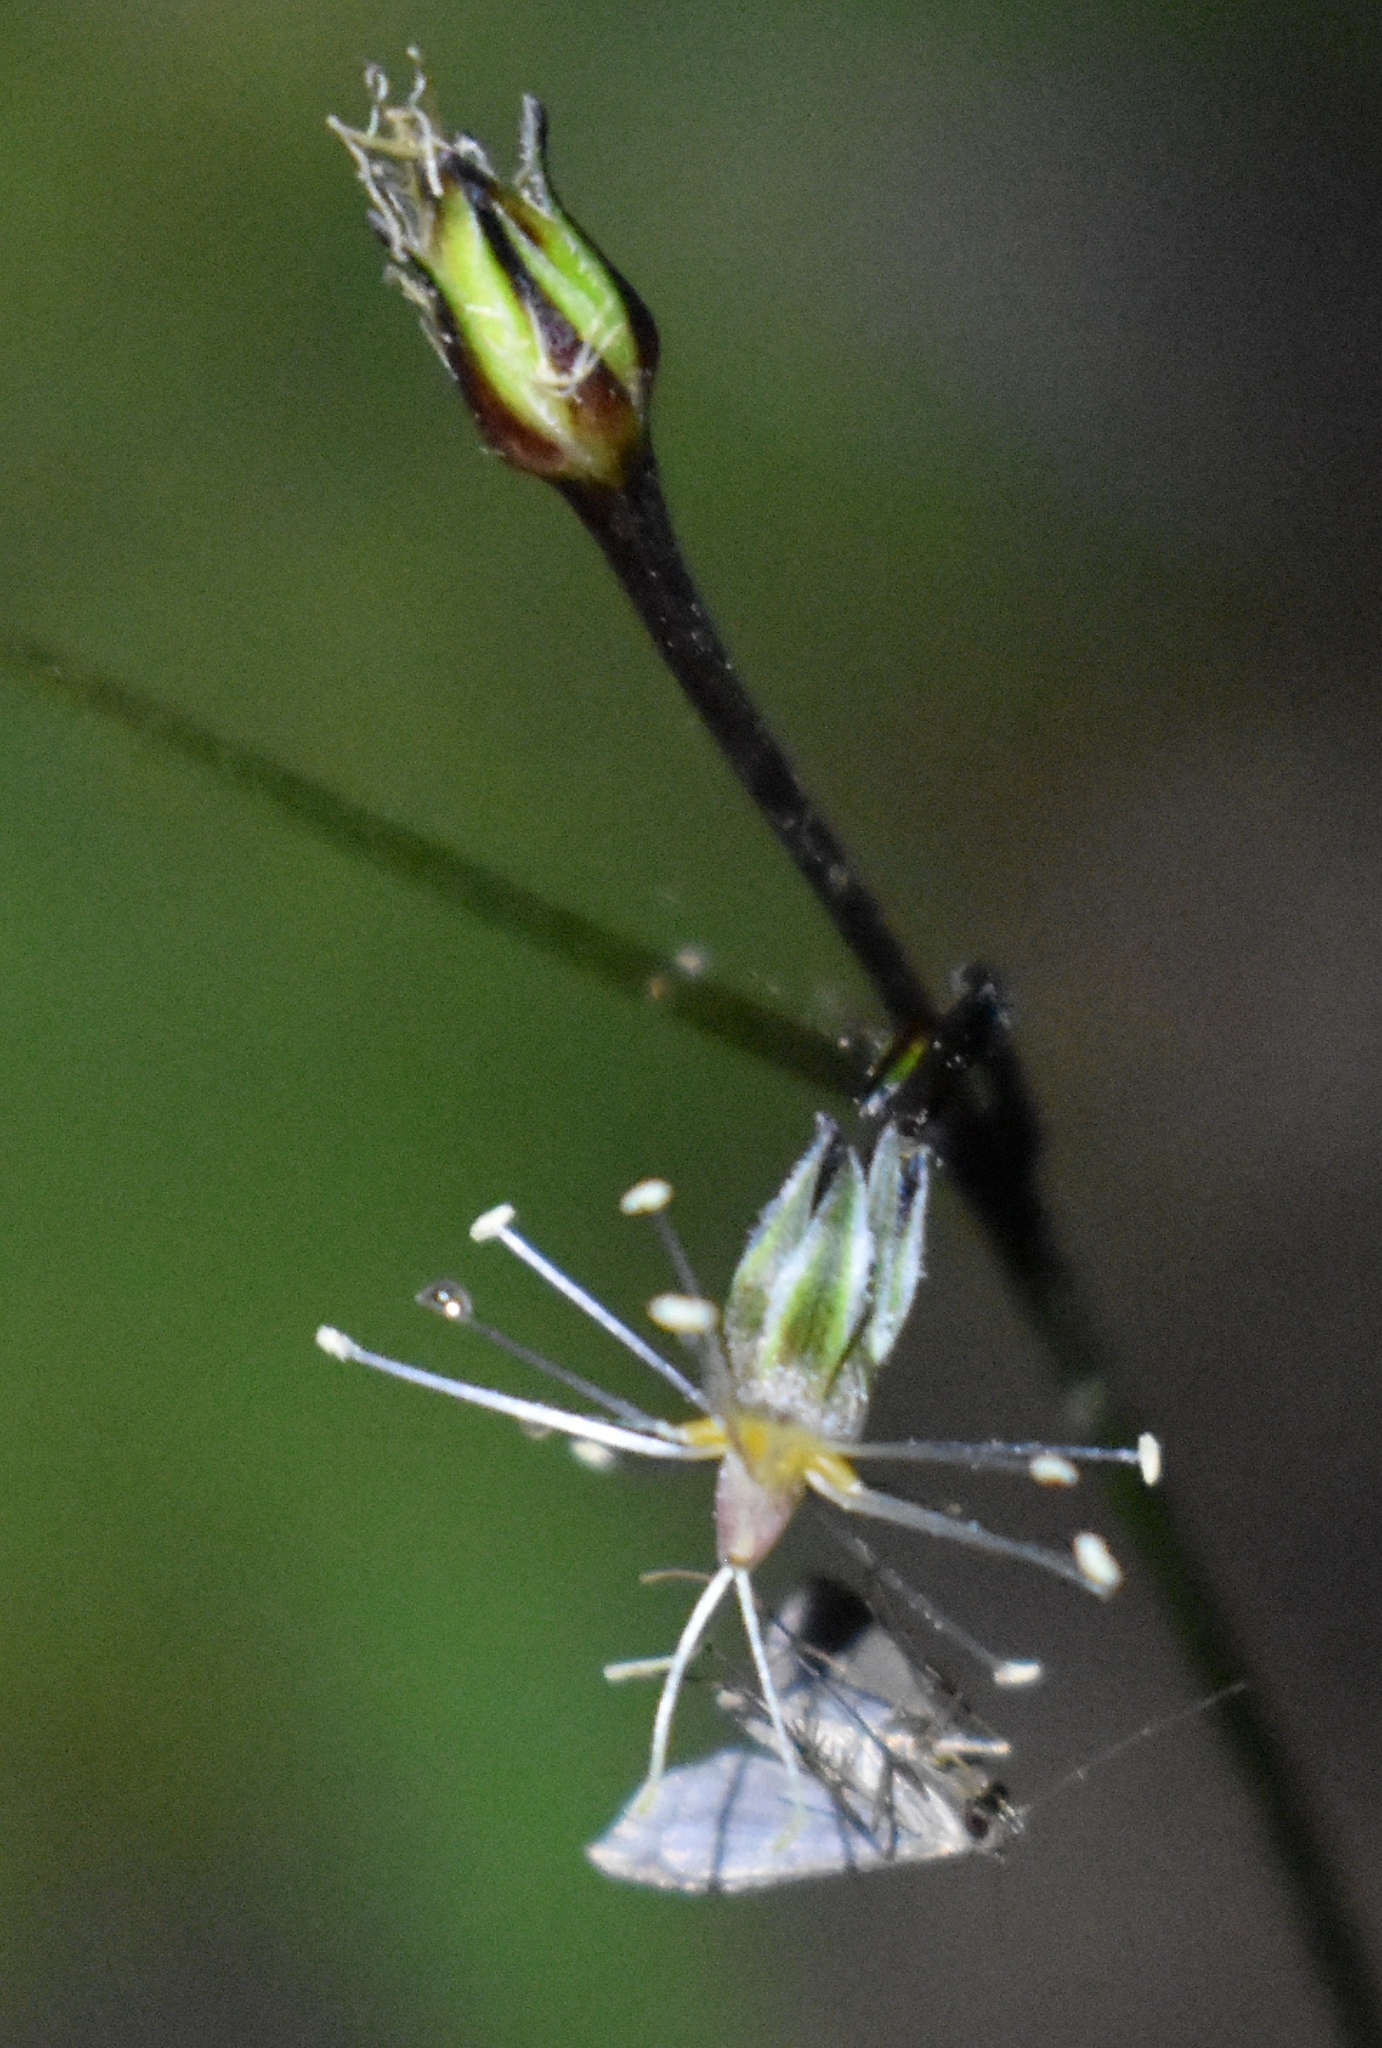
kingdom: Animalia
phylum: Arthropoda
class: Insecta
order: Lepidoptera
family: Erebidae
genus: Pseudoschrankia
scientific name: Pseudoschrankia brevipalpis
